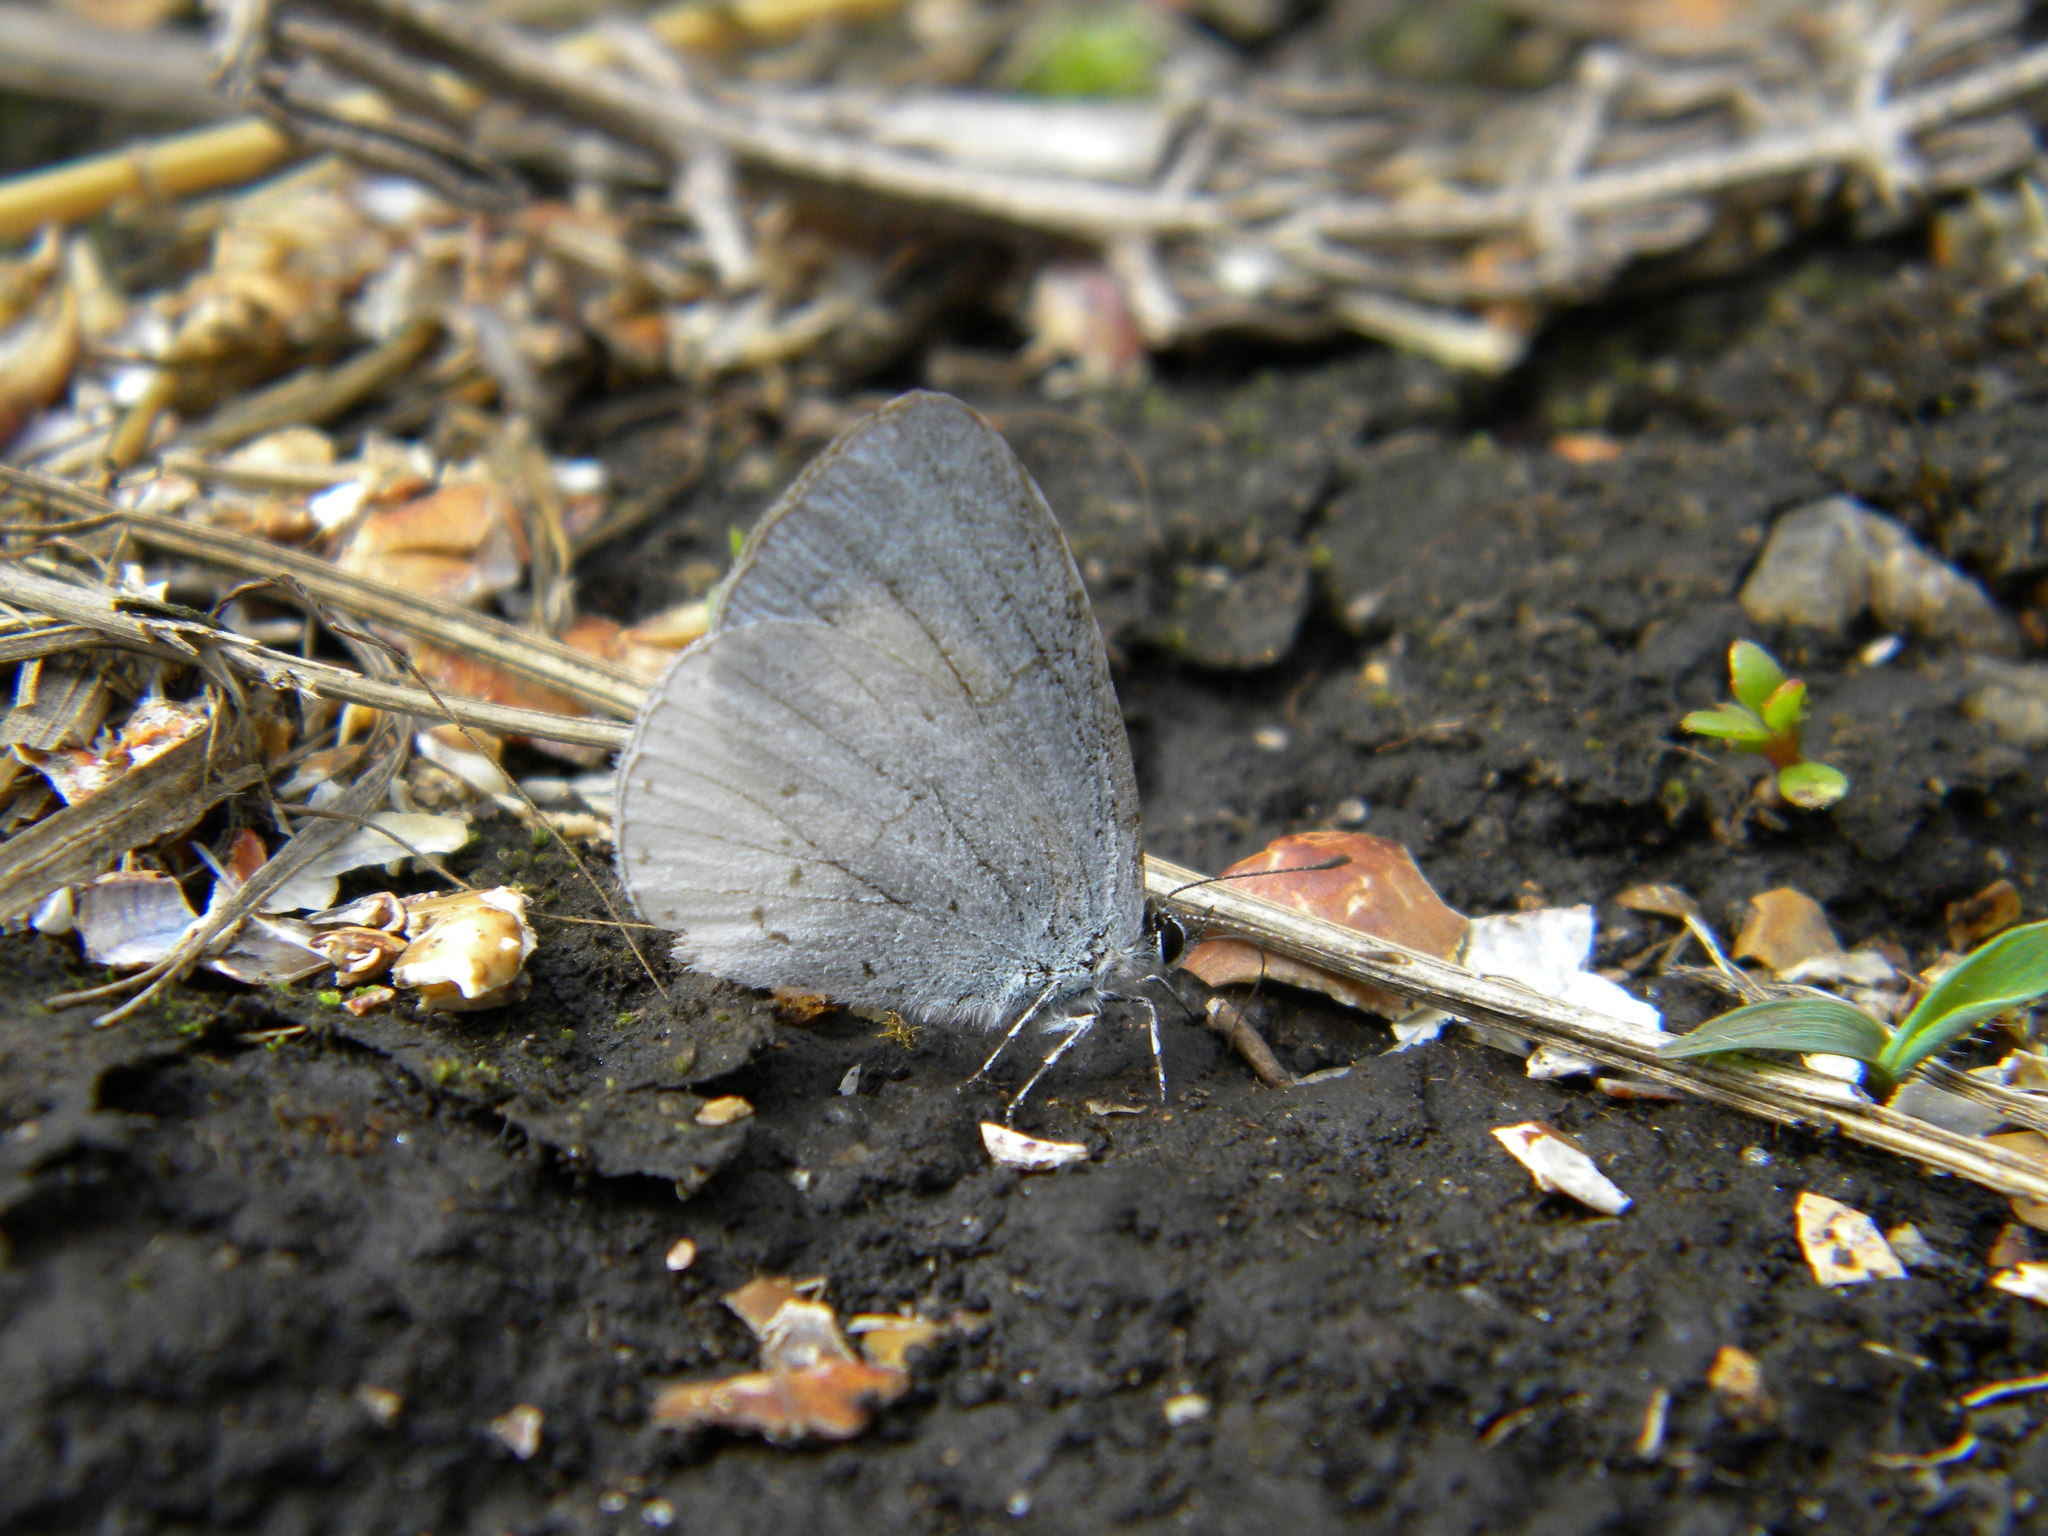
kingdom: Animalia
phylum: Arthropoda
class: Insecta
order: Lepidoptera
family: Lycaenidae
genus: Udara
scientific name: Udara akasa
